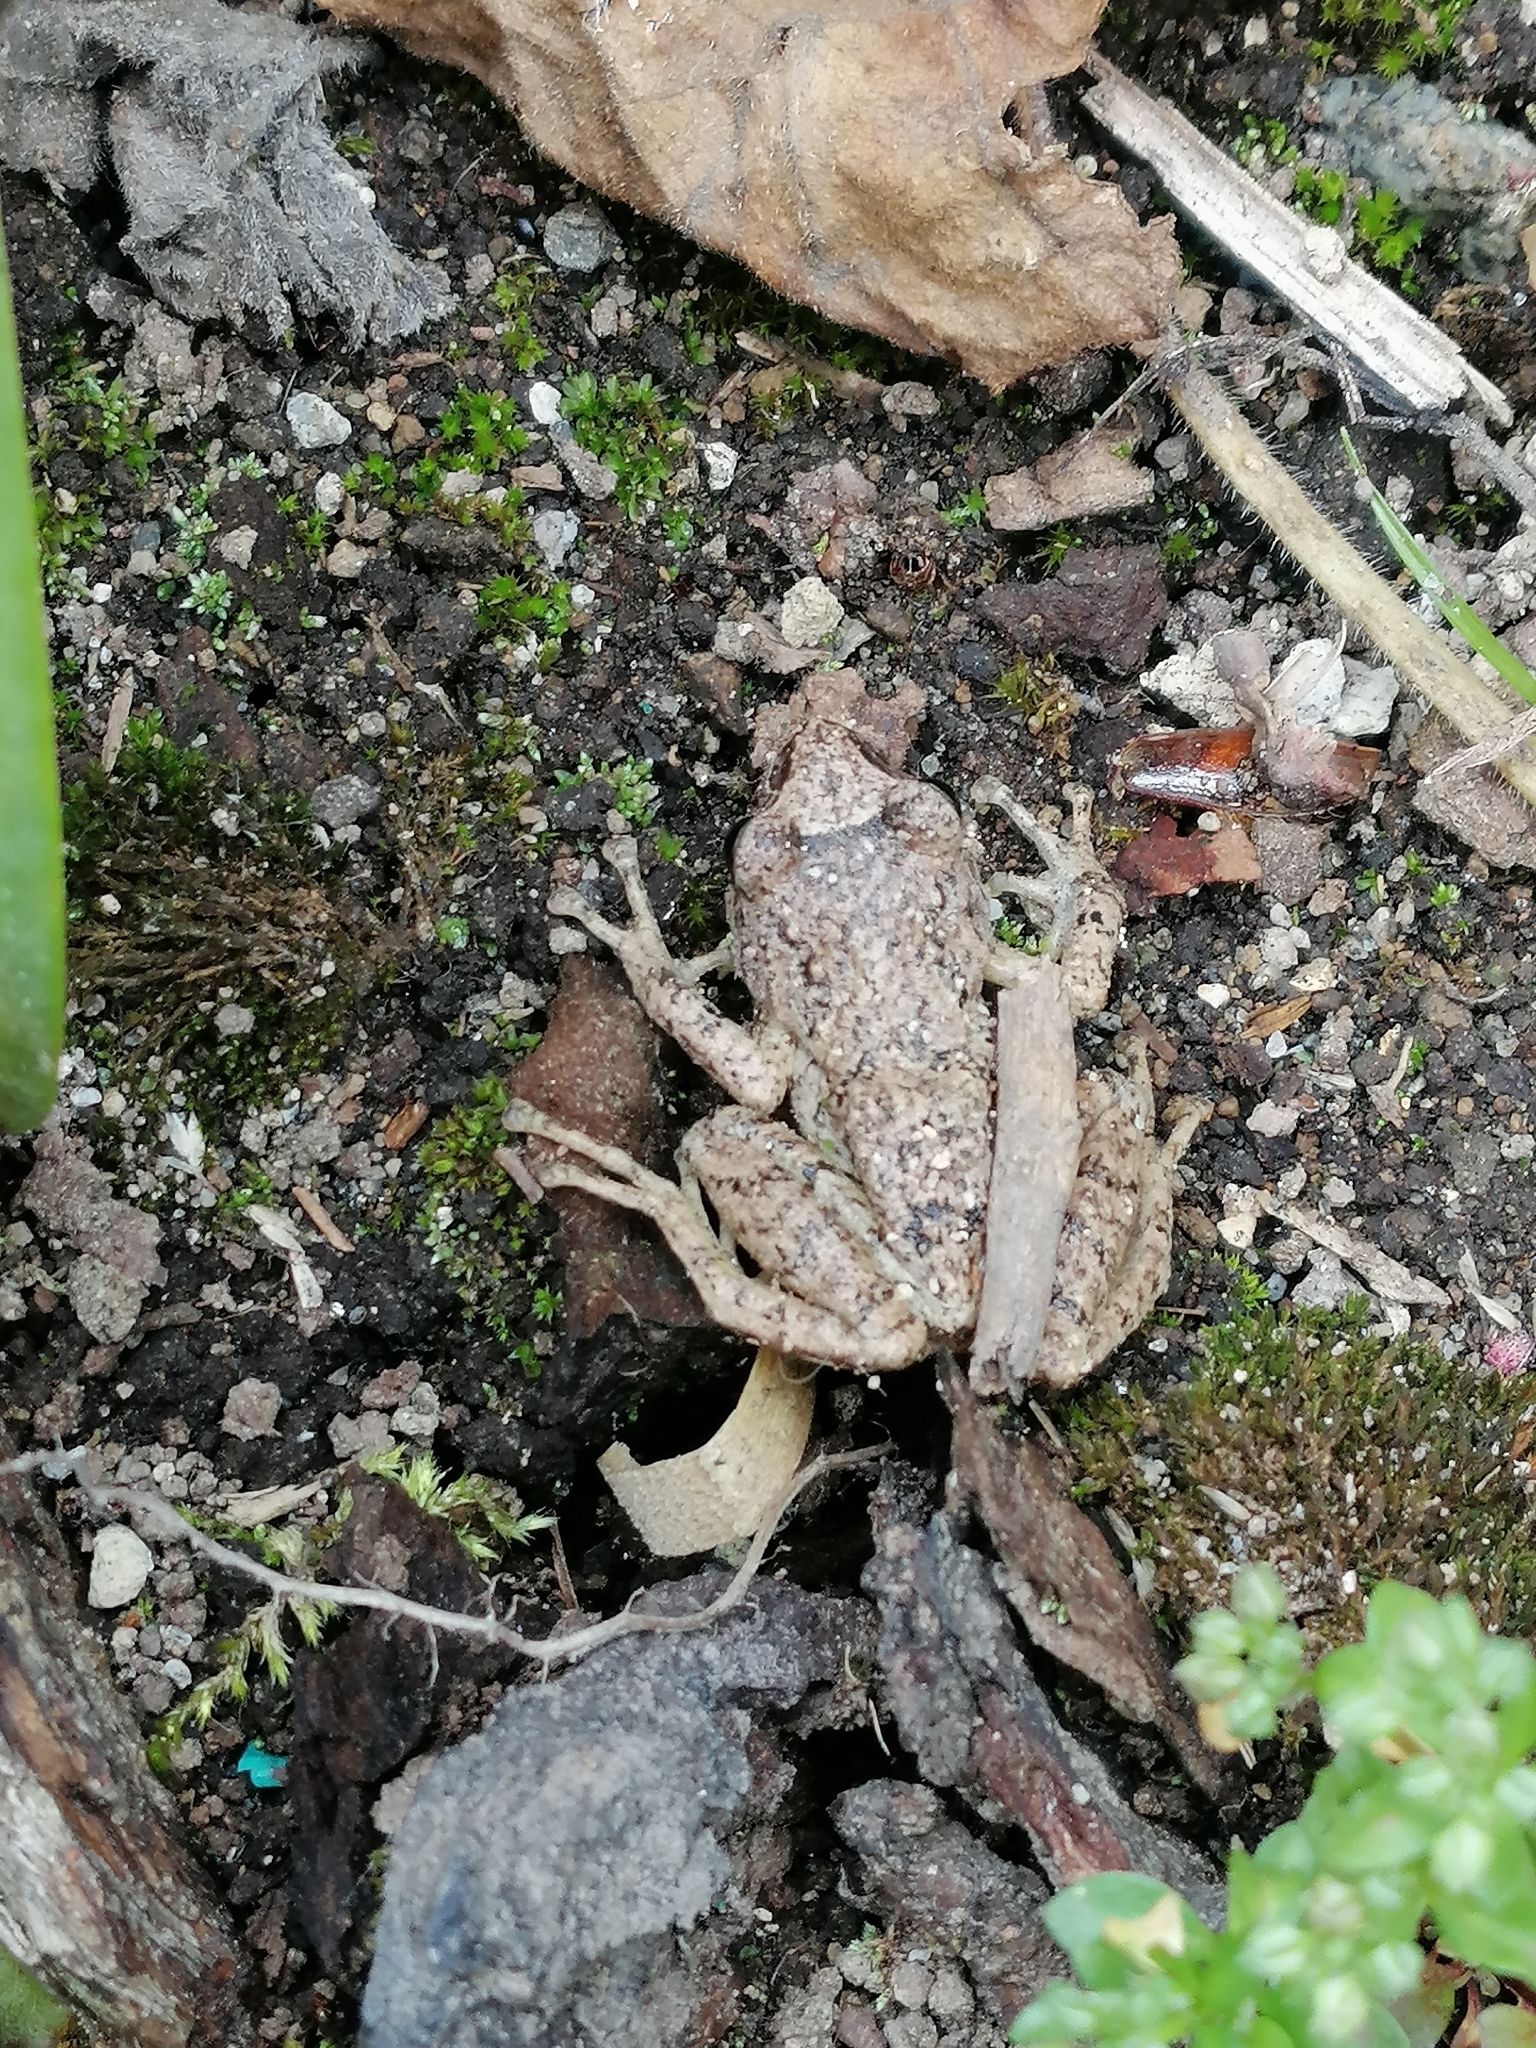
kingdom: Animalia
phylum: Chordata
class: Amphibia
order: Anura
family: Craugastoridae
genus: Pristimantis
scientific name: Pristimantis unistrigatus
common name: Striped robber frog
